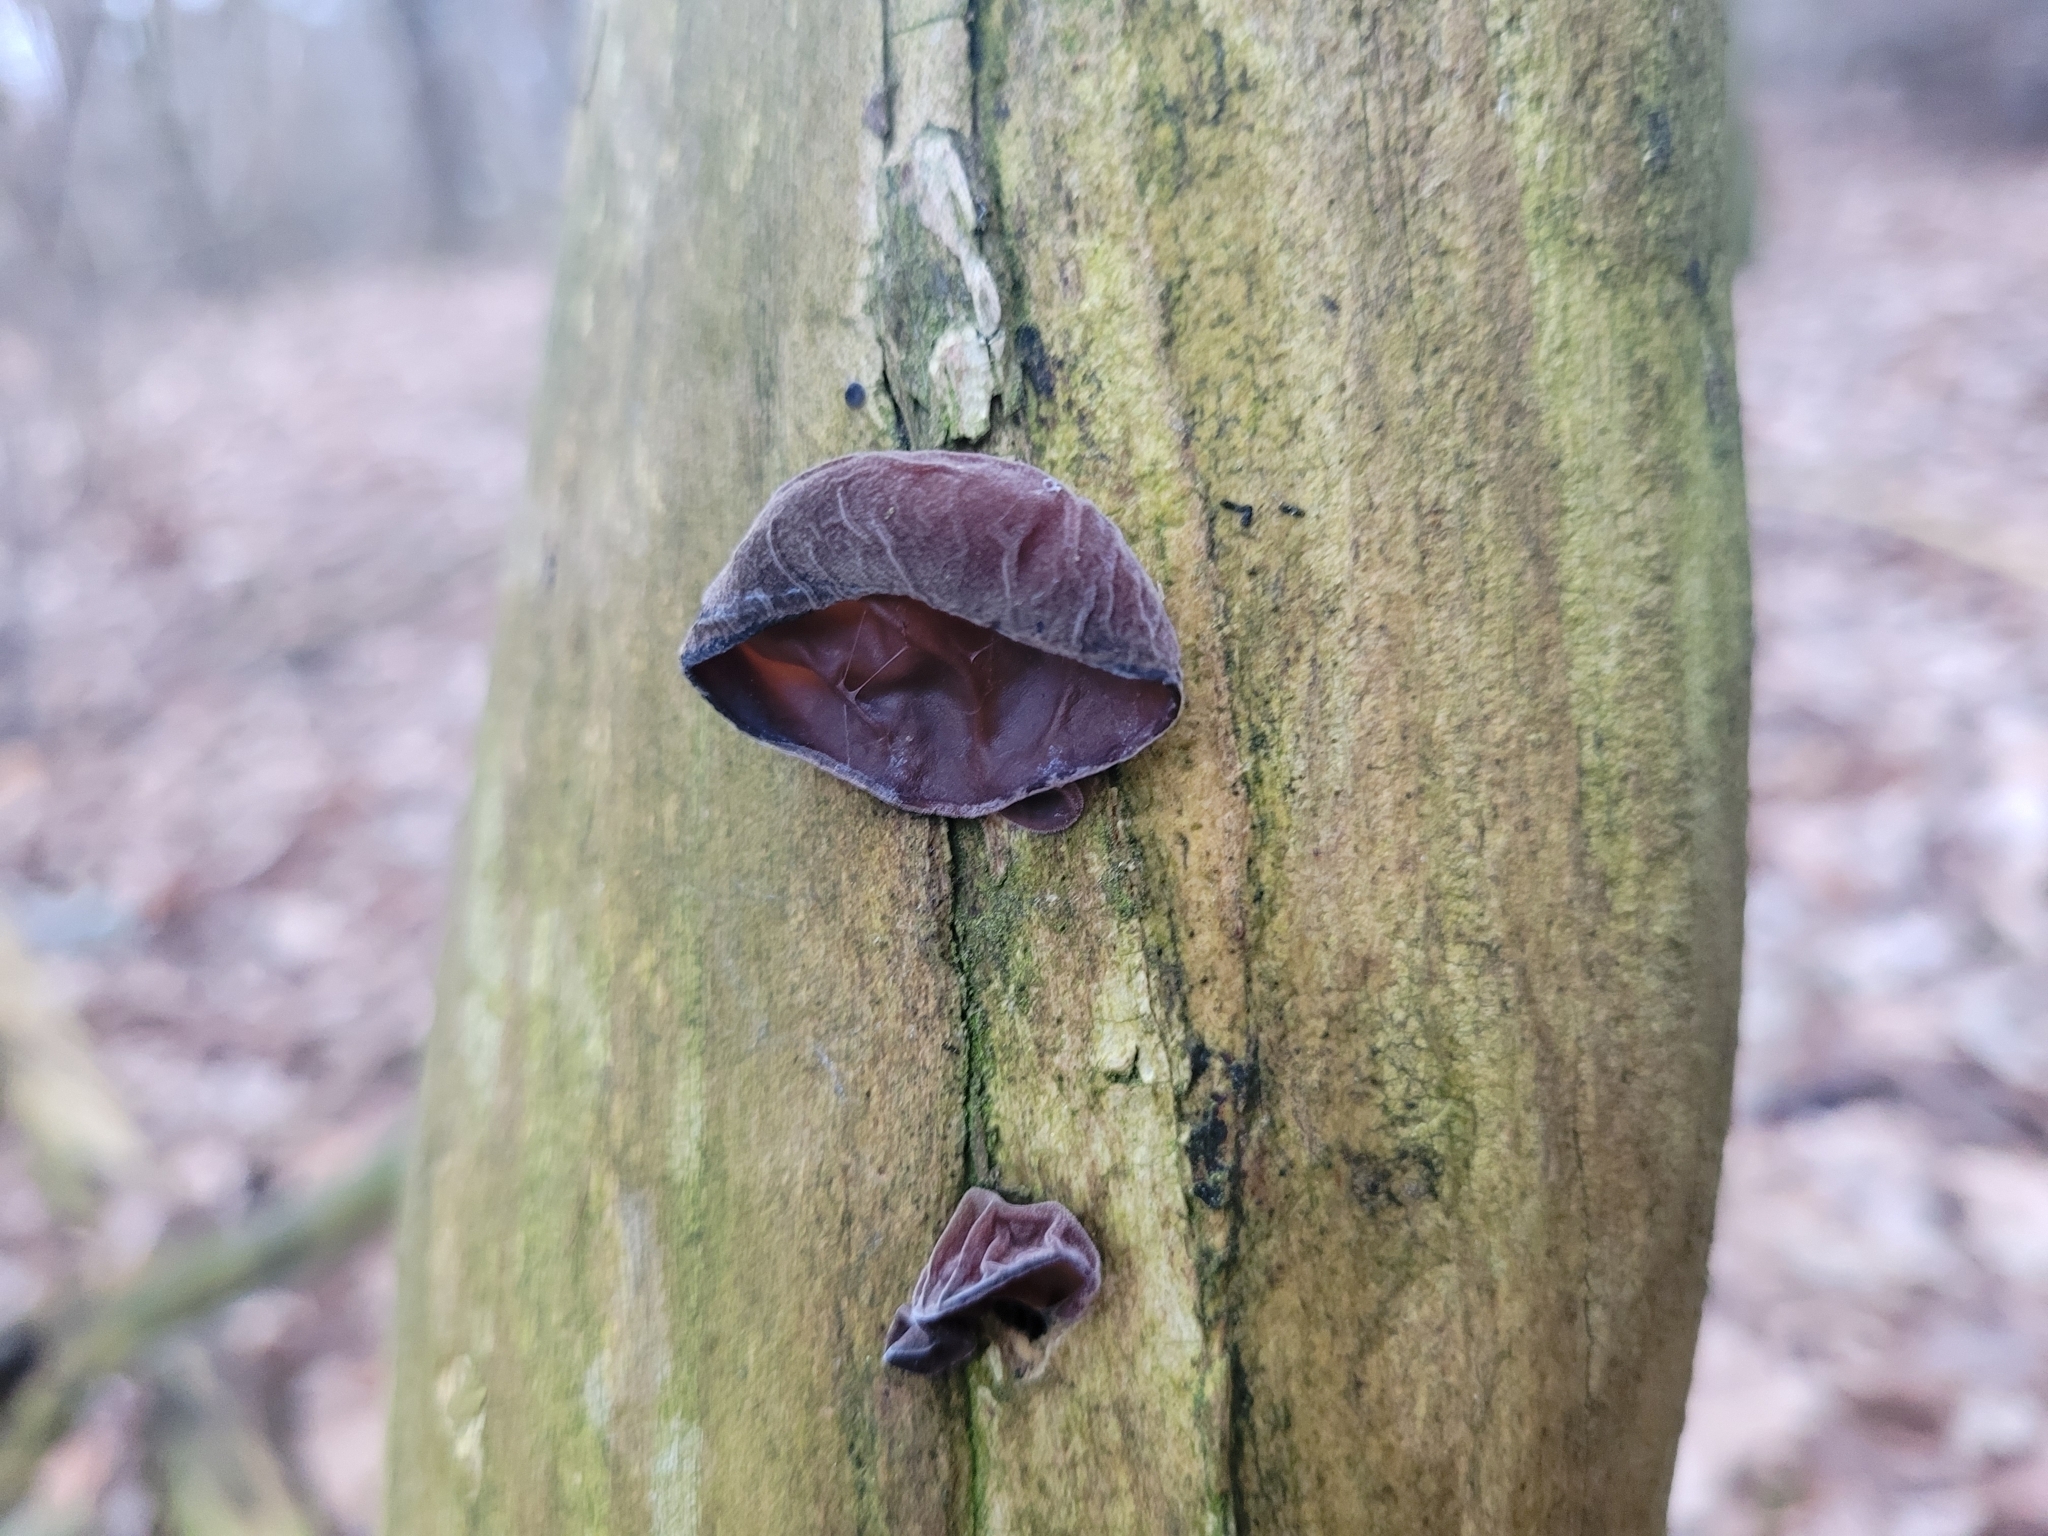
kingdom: Fungi
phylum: Basidiomycota
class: Agaricomycetes
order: Auriculariales
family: Auriculariaceae
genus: Auricularia
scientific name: Auricularia auricula-judae
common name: Jelly ear
